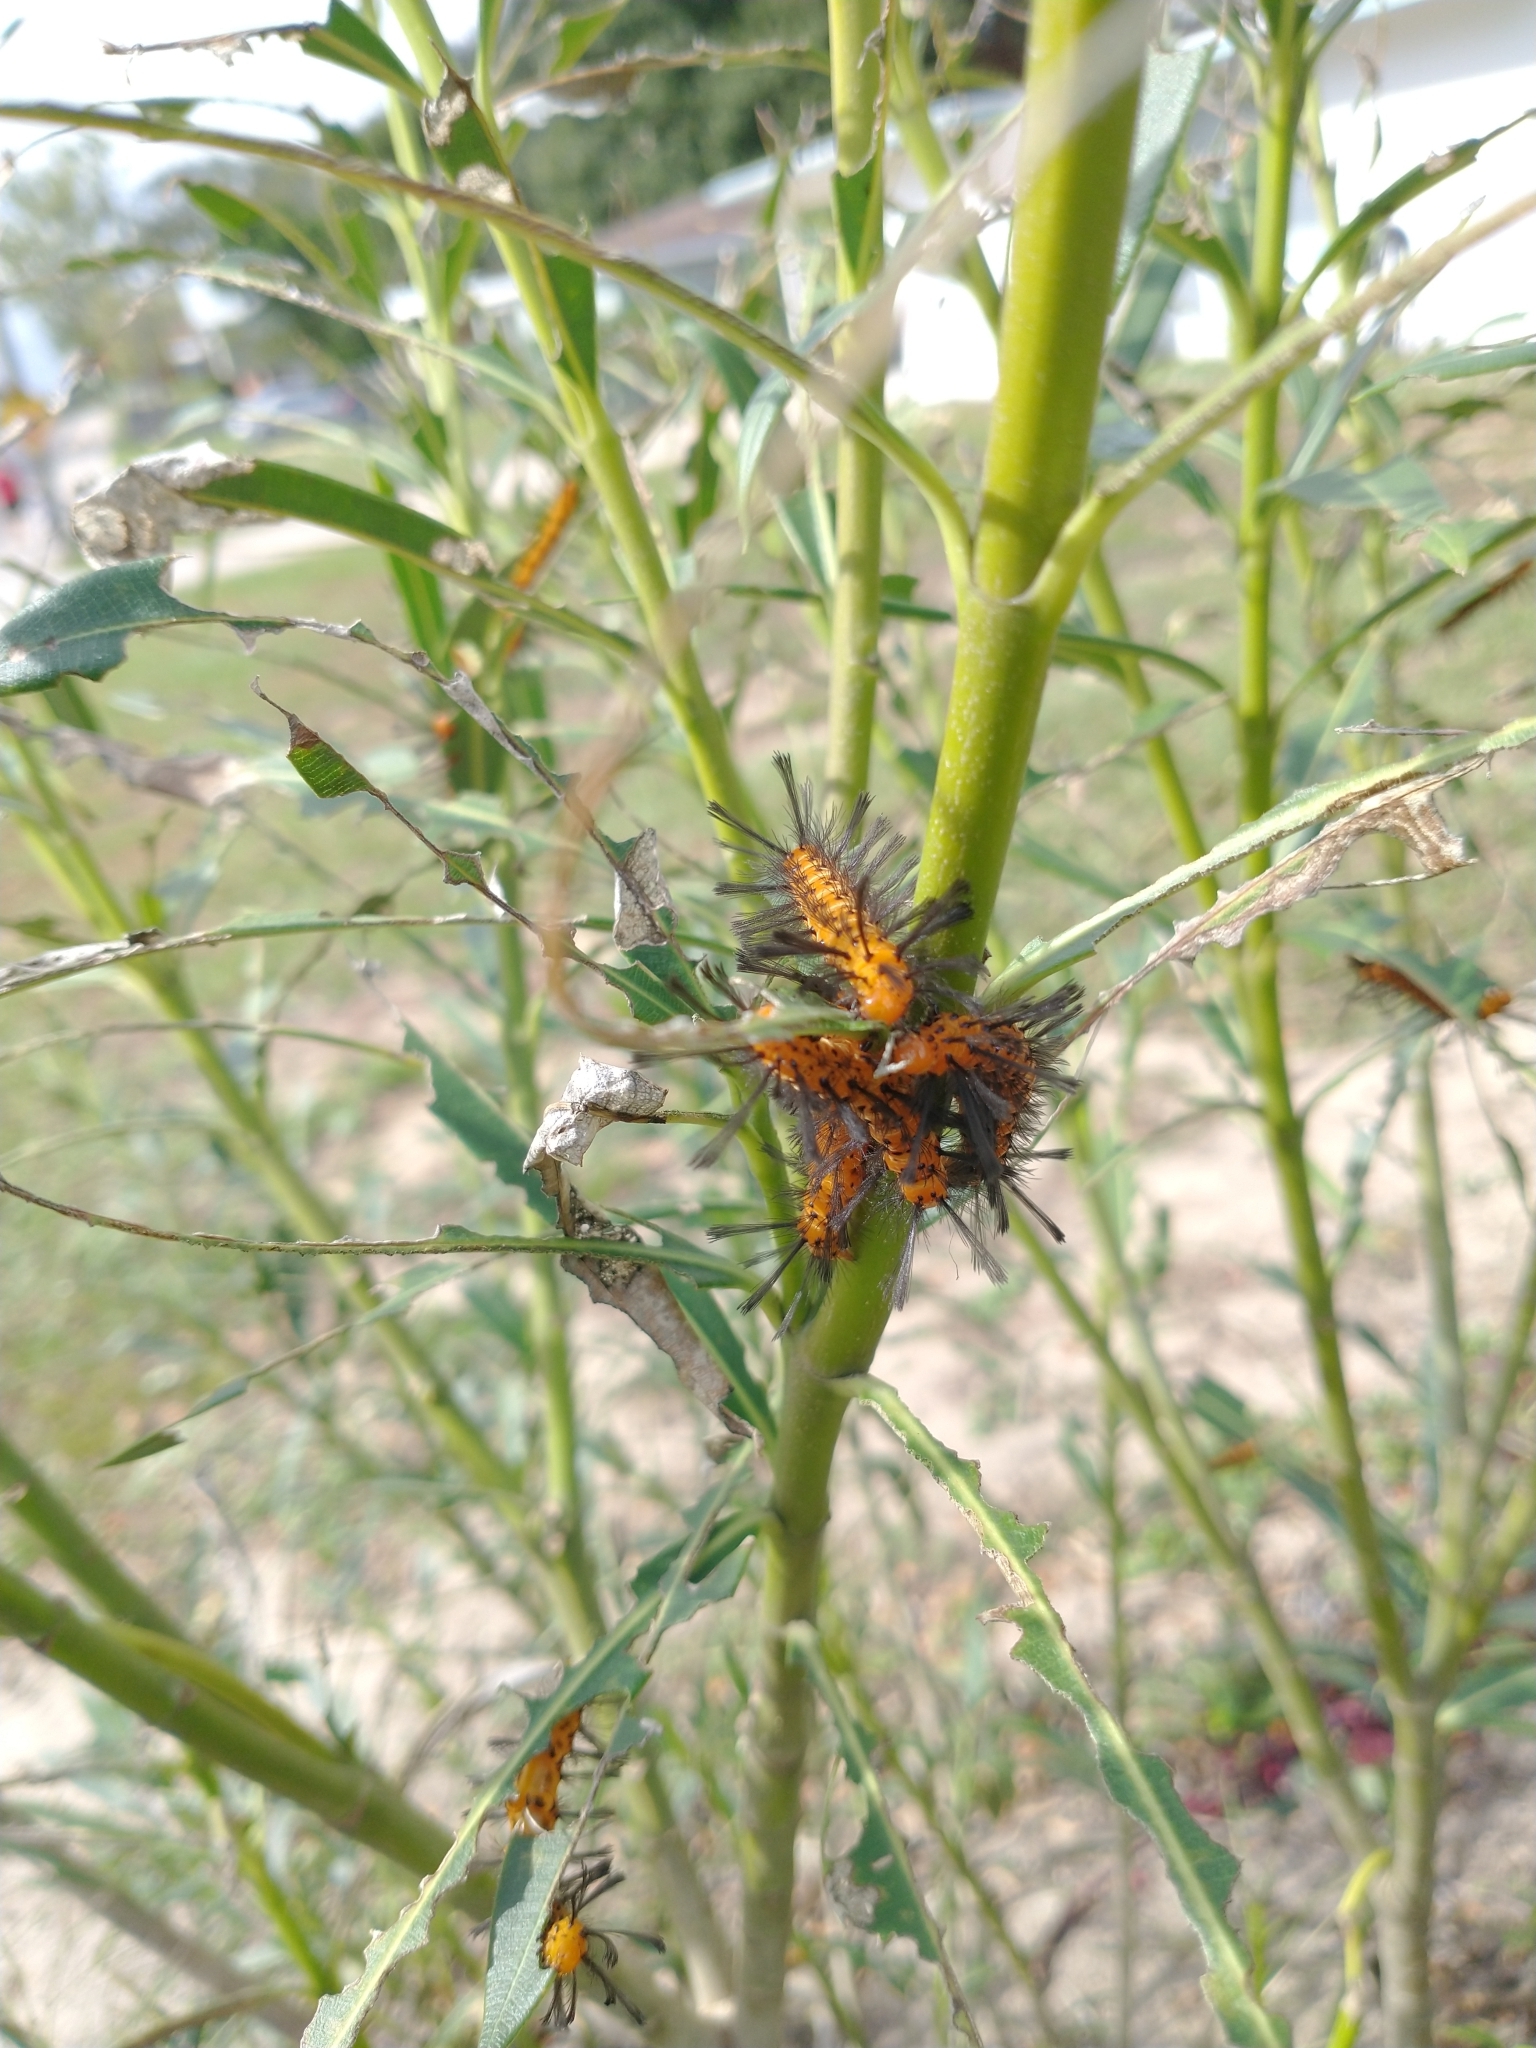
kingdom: Animalia
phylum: Arthropoda
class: Insecta
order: Lepidoptera
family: Erebidae
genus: Syntomeida
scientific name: Syntomeida epilais
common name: Polka-dot wasp moth
